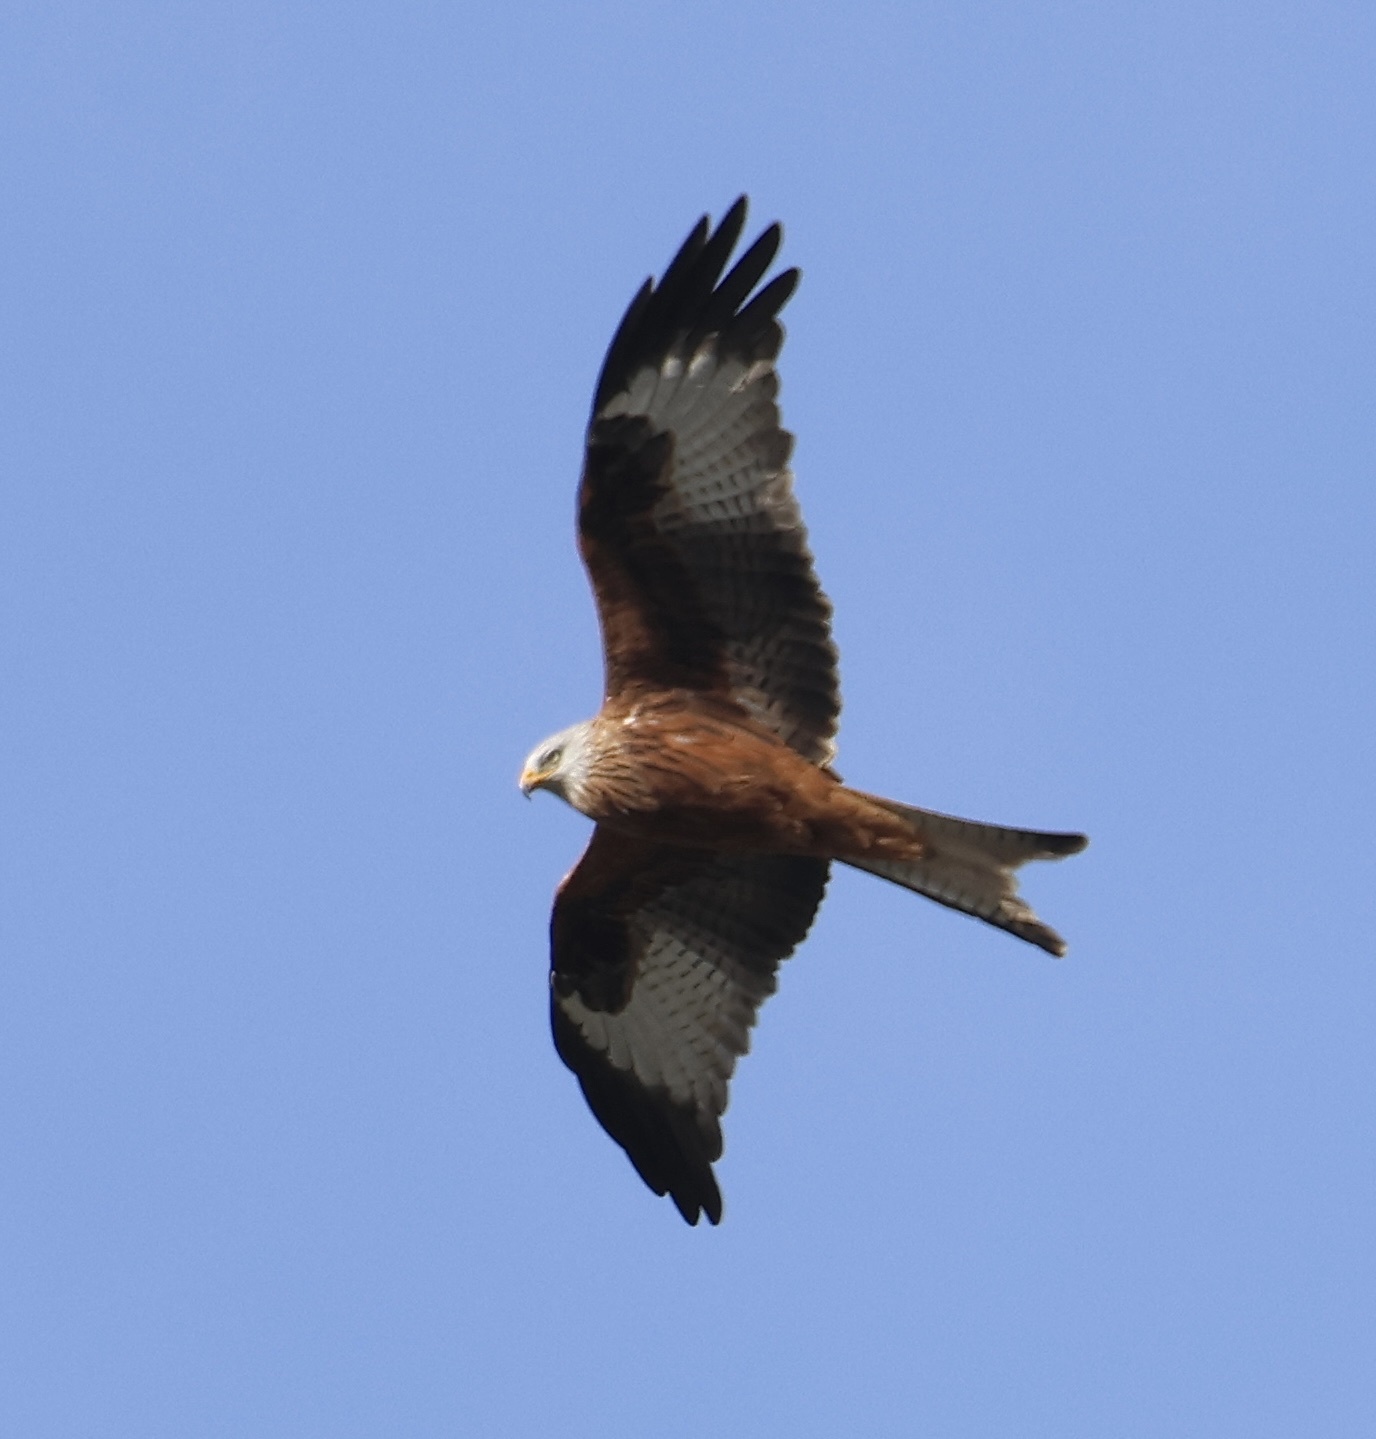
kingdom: Animalia
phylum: Chordata
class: Aves
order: Accipitriformes
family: Accipitridae
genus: Milvus
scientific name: Milvus milvus
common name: Red kite
